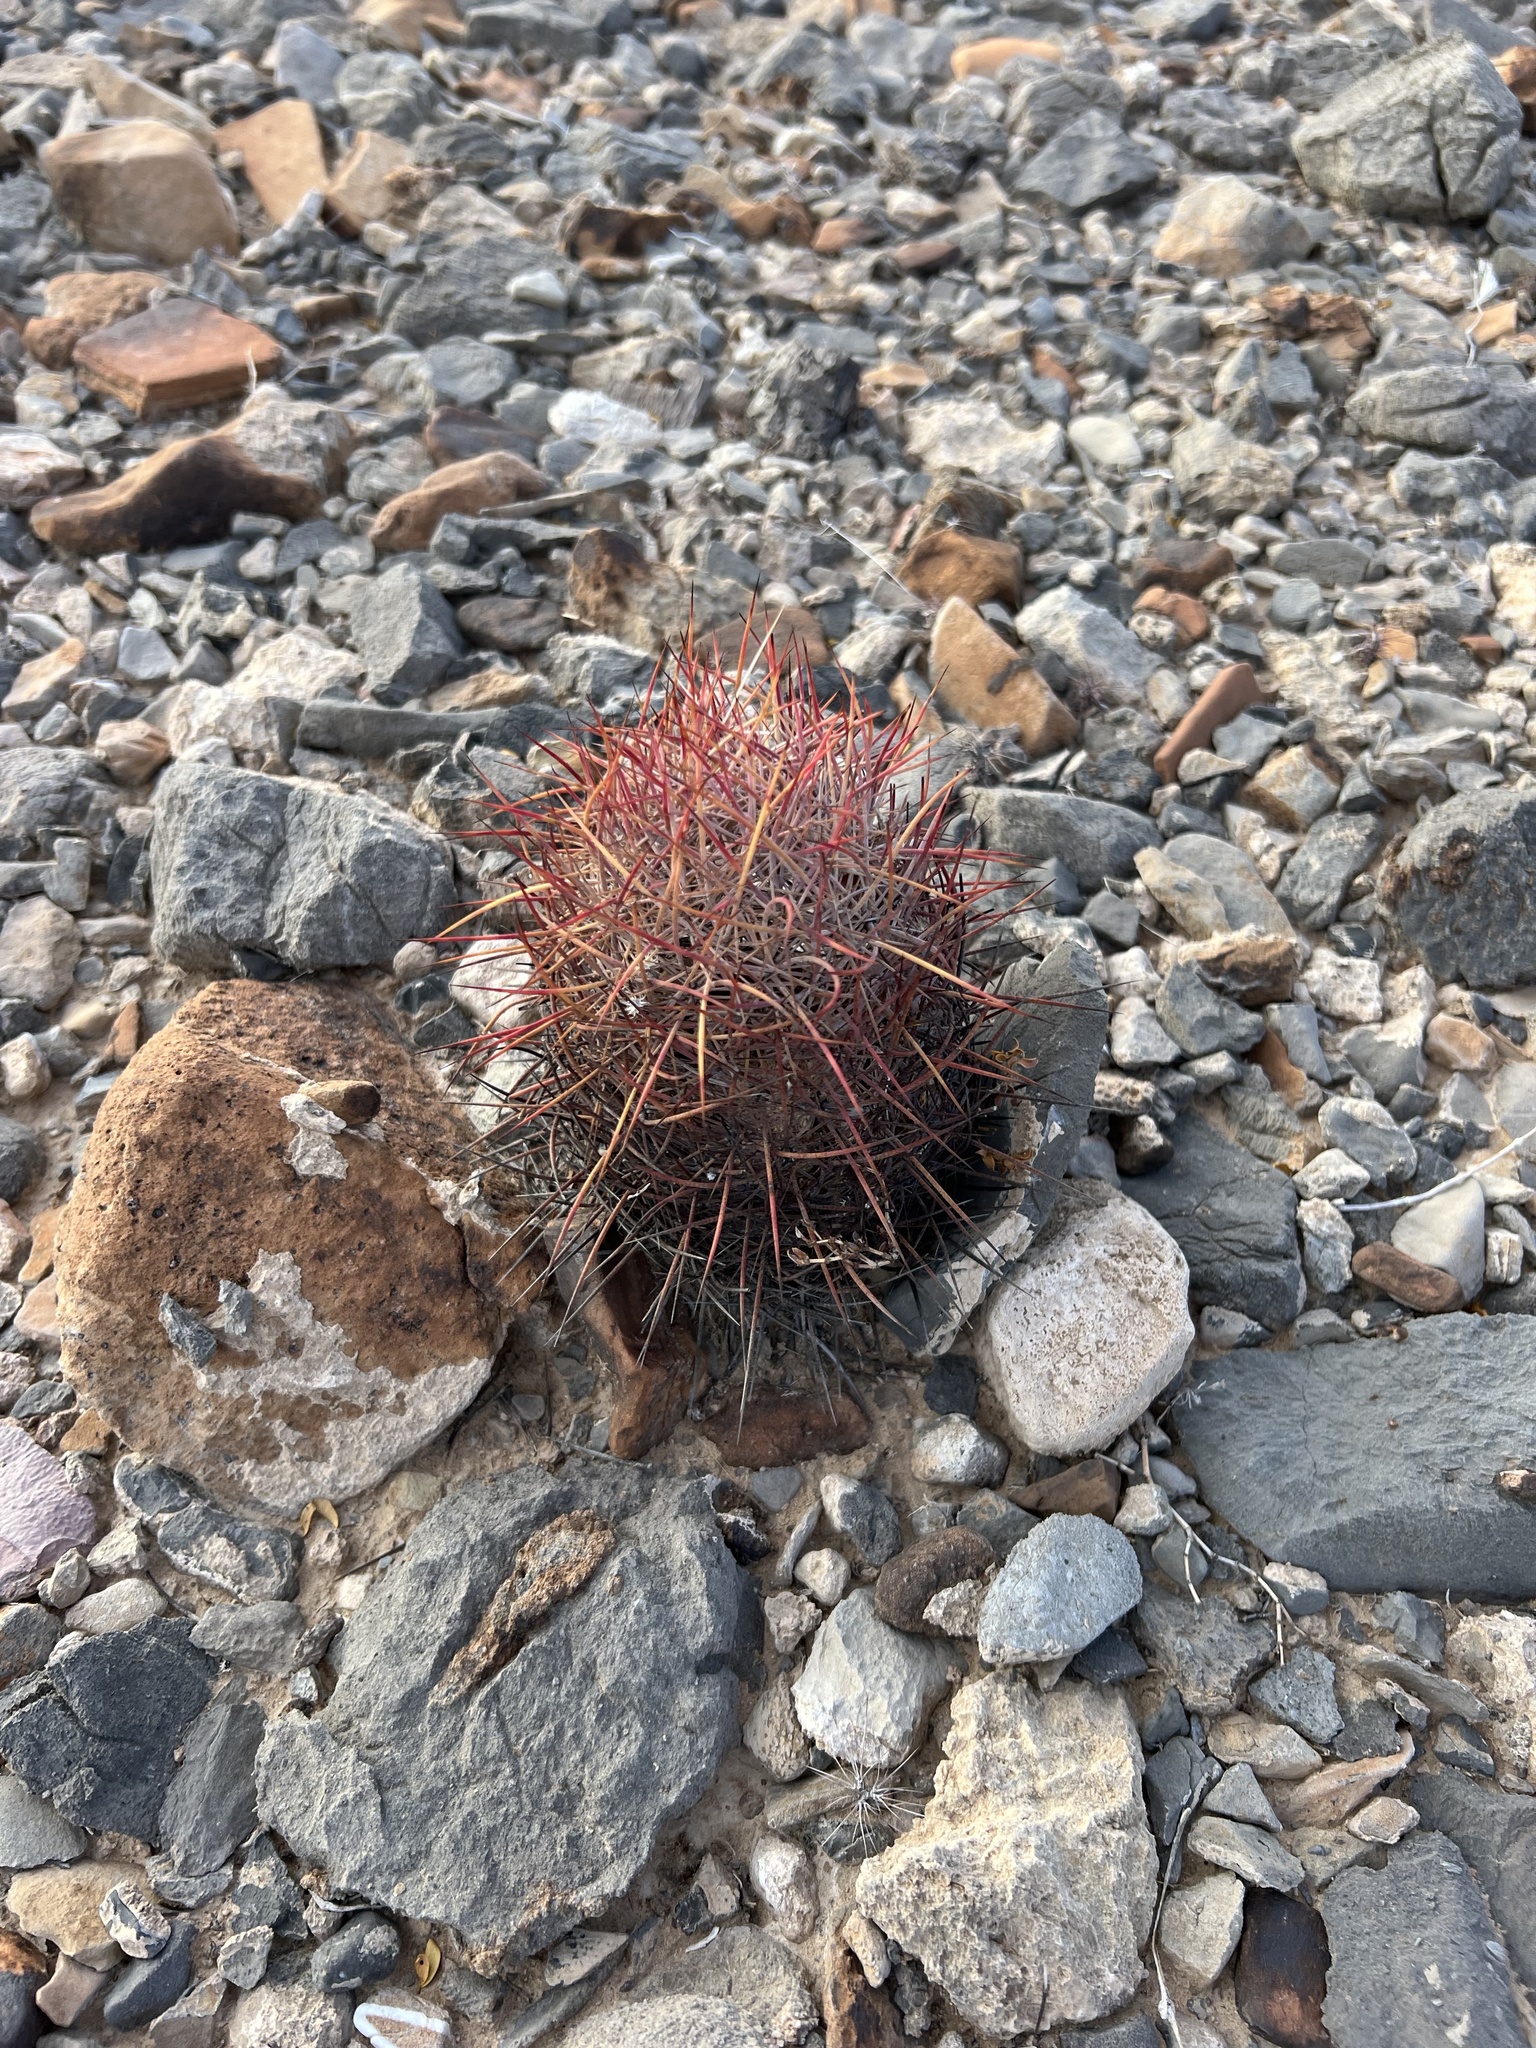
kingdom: Plantae
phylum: Tracheophyta
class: Magnoliopsida
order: Caryophyllales
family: Cactaceae
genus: Sclerocactus
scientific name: Sclerocactus johnsonii
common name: Eight-spine fishhook cactus
